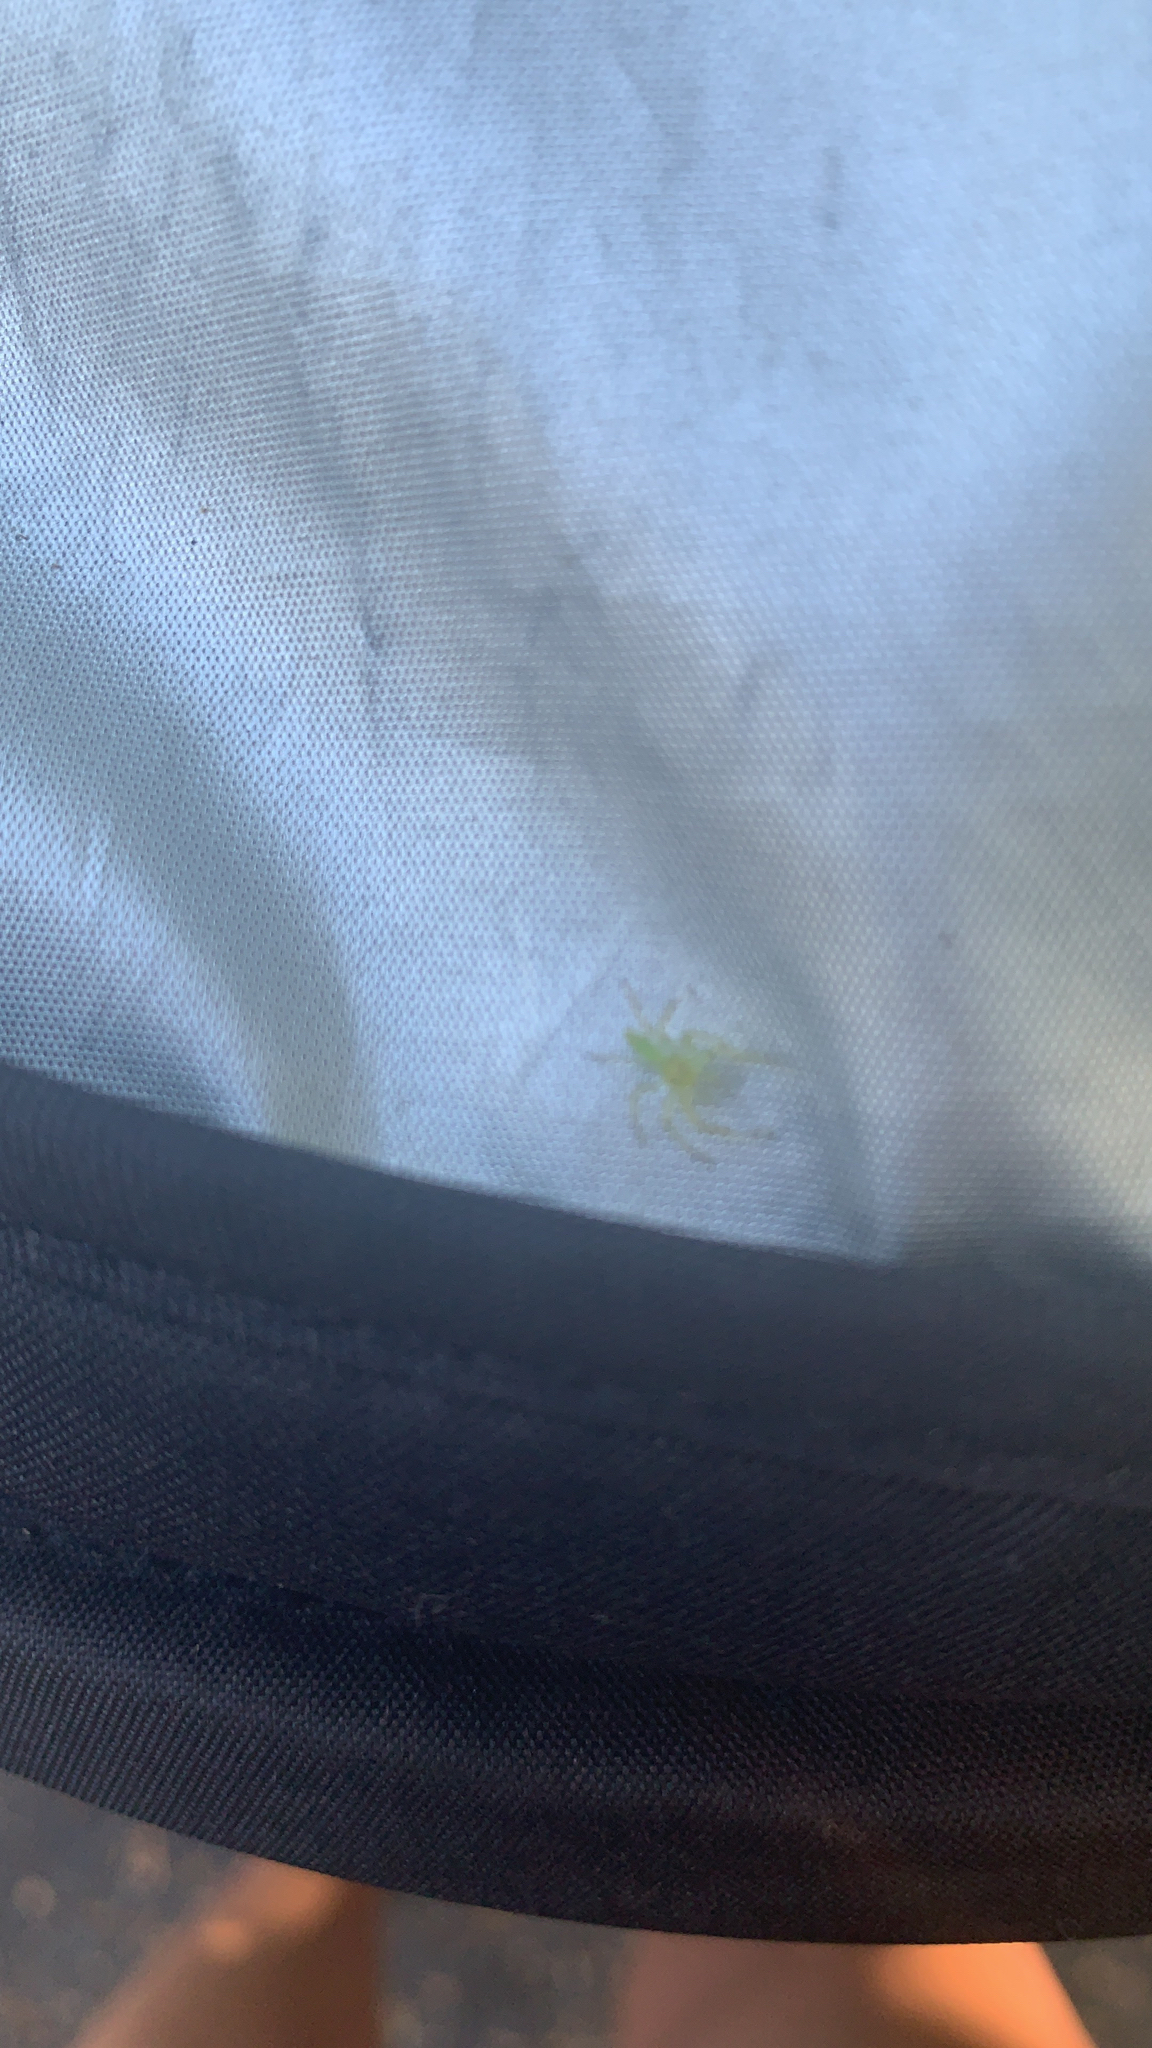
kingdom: Animalia
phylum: Arthropoda
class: Arachnida
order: Araneae
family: Salticidae
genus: Lyssomanes
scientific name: Lyssomanes viridis
